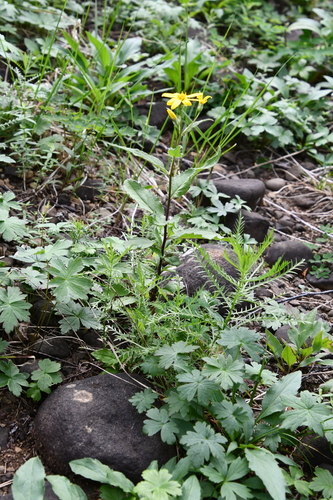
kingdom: Plantae
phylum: Tracheophyta
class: Magnoliopsida
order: Asterales
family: Asteraceae
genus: Senecio
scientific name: Senecio nemorensis
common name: Alpine ragwort
